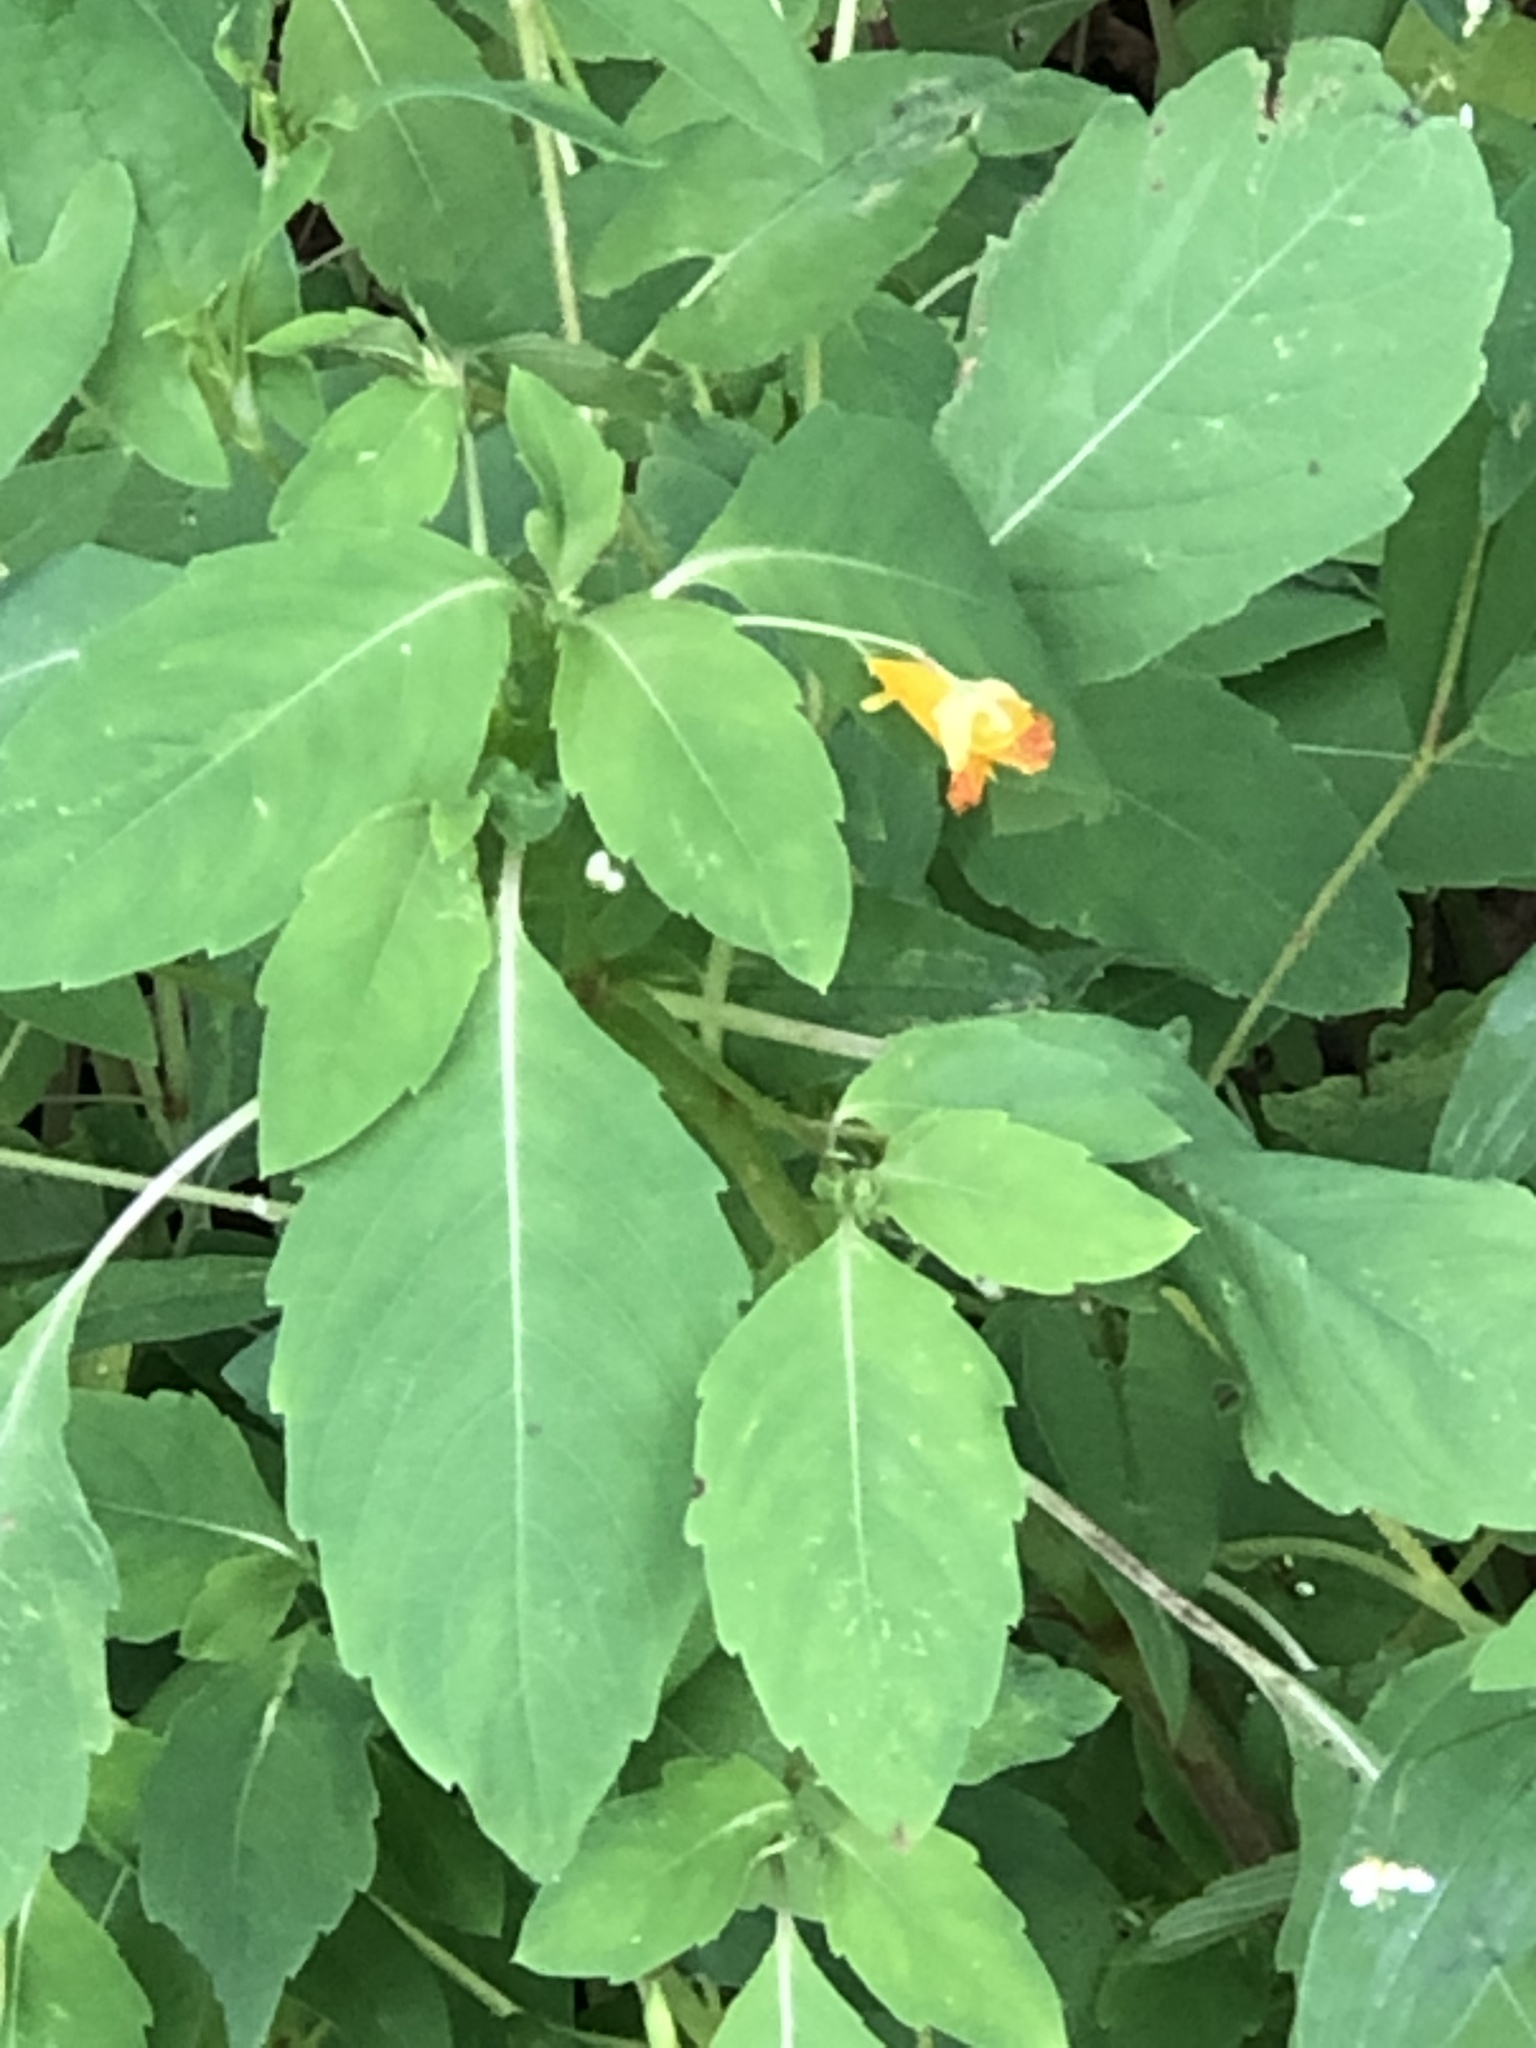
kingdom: Plantae
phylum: Tracheophyta
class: Magnoliopsida
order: Ericales
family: Balsaminaceae
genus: Impatiens
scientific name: Impatiens capensis
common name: Orange balsam
